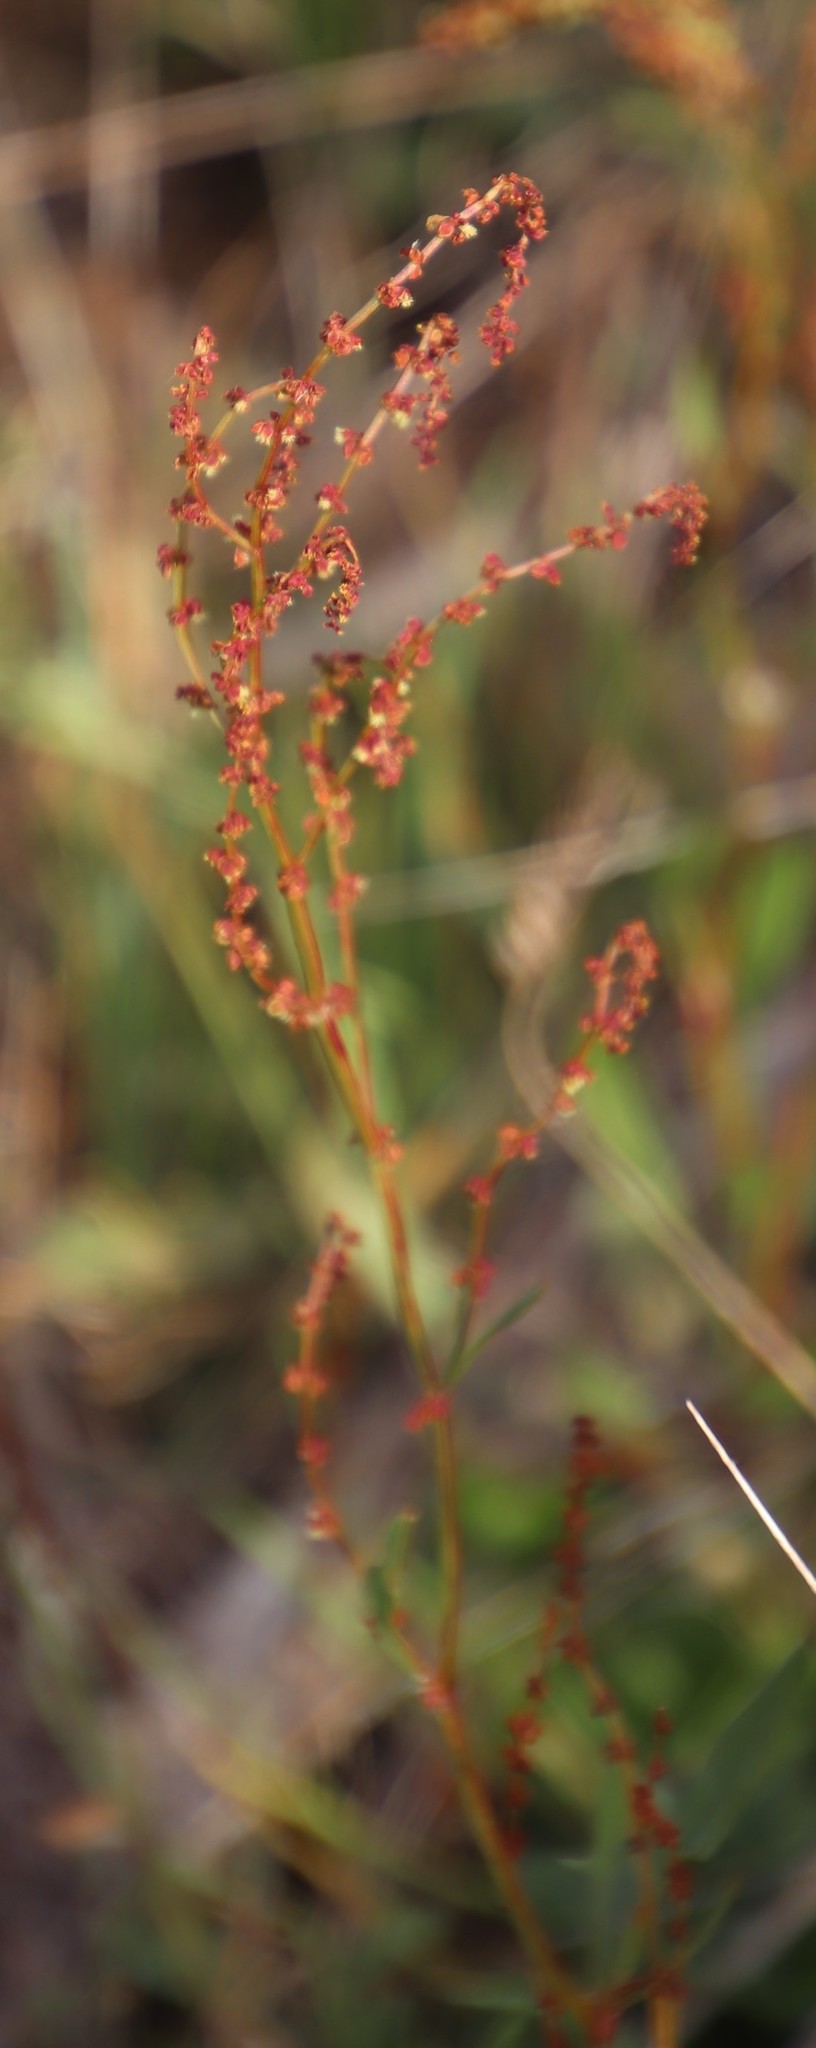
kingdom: Plantae
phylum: Tracheophyta
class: Magnoliopsida
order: Caryophyllales
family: Polygonaceae
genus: Rumex
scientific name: Rumex acetosella
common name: Common sheep sorrel
